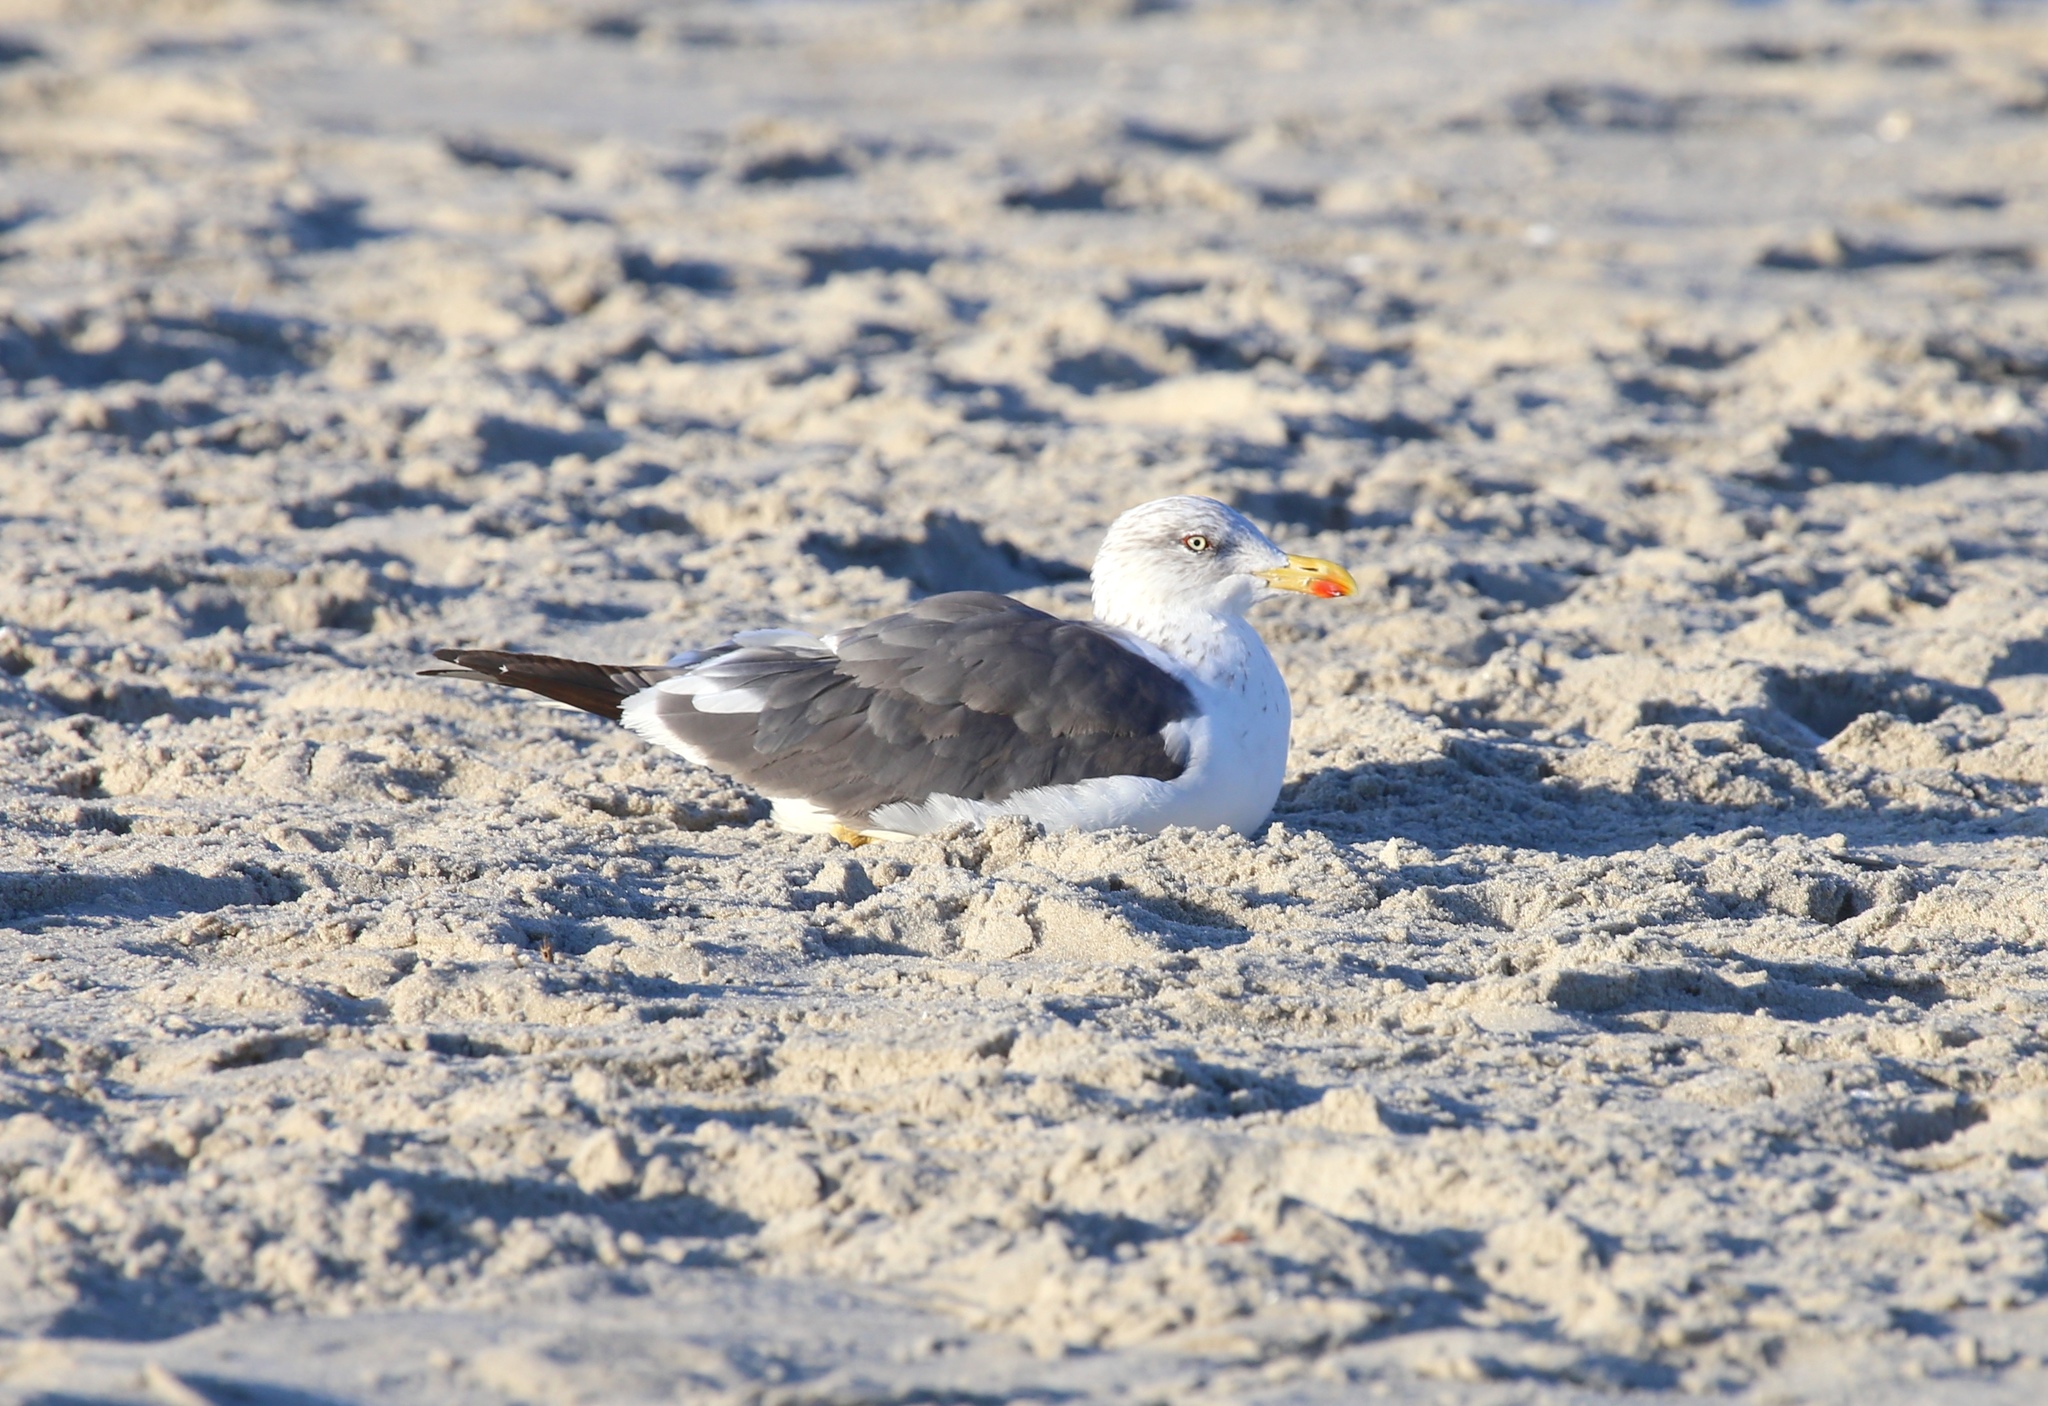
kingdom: Animalia
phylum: Chordata
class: Aves
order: Charadriiformes
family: Laridae
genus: Larus
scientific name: Larus fuscus
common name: Lesser black-backed gull
